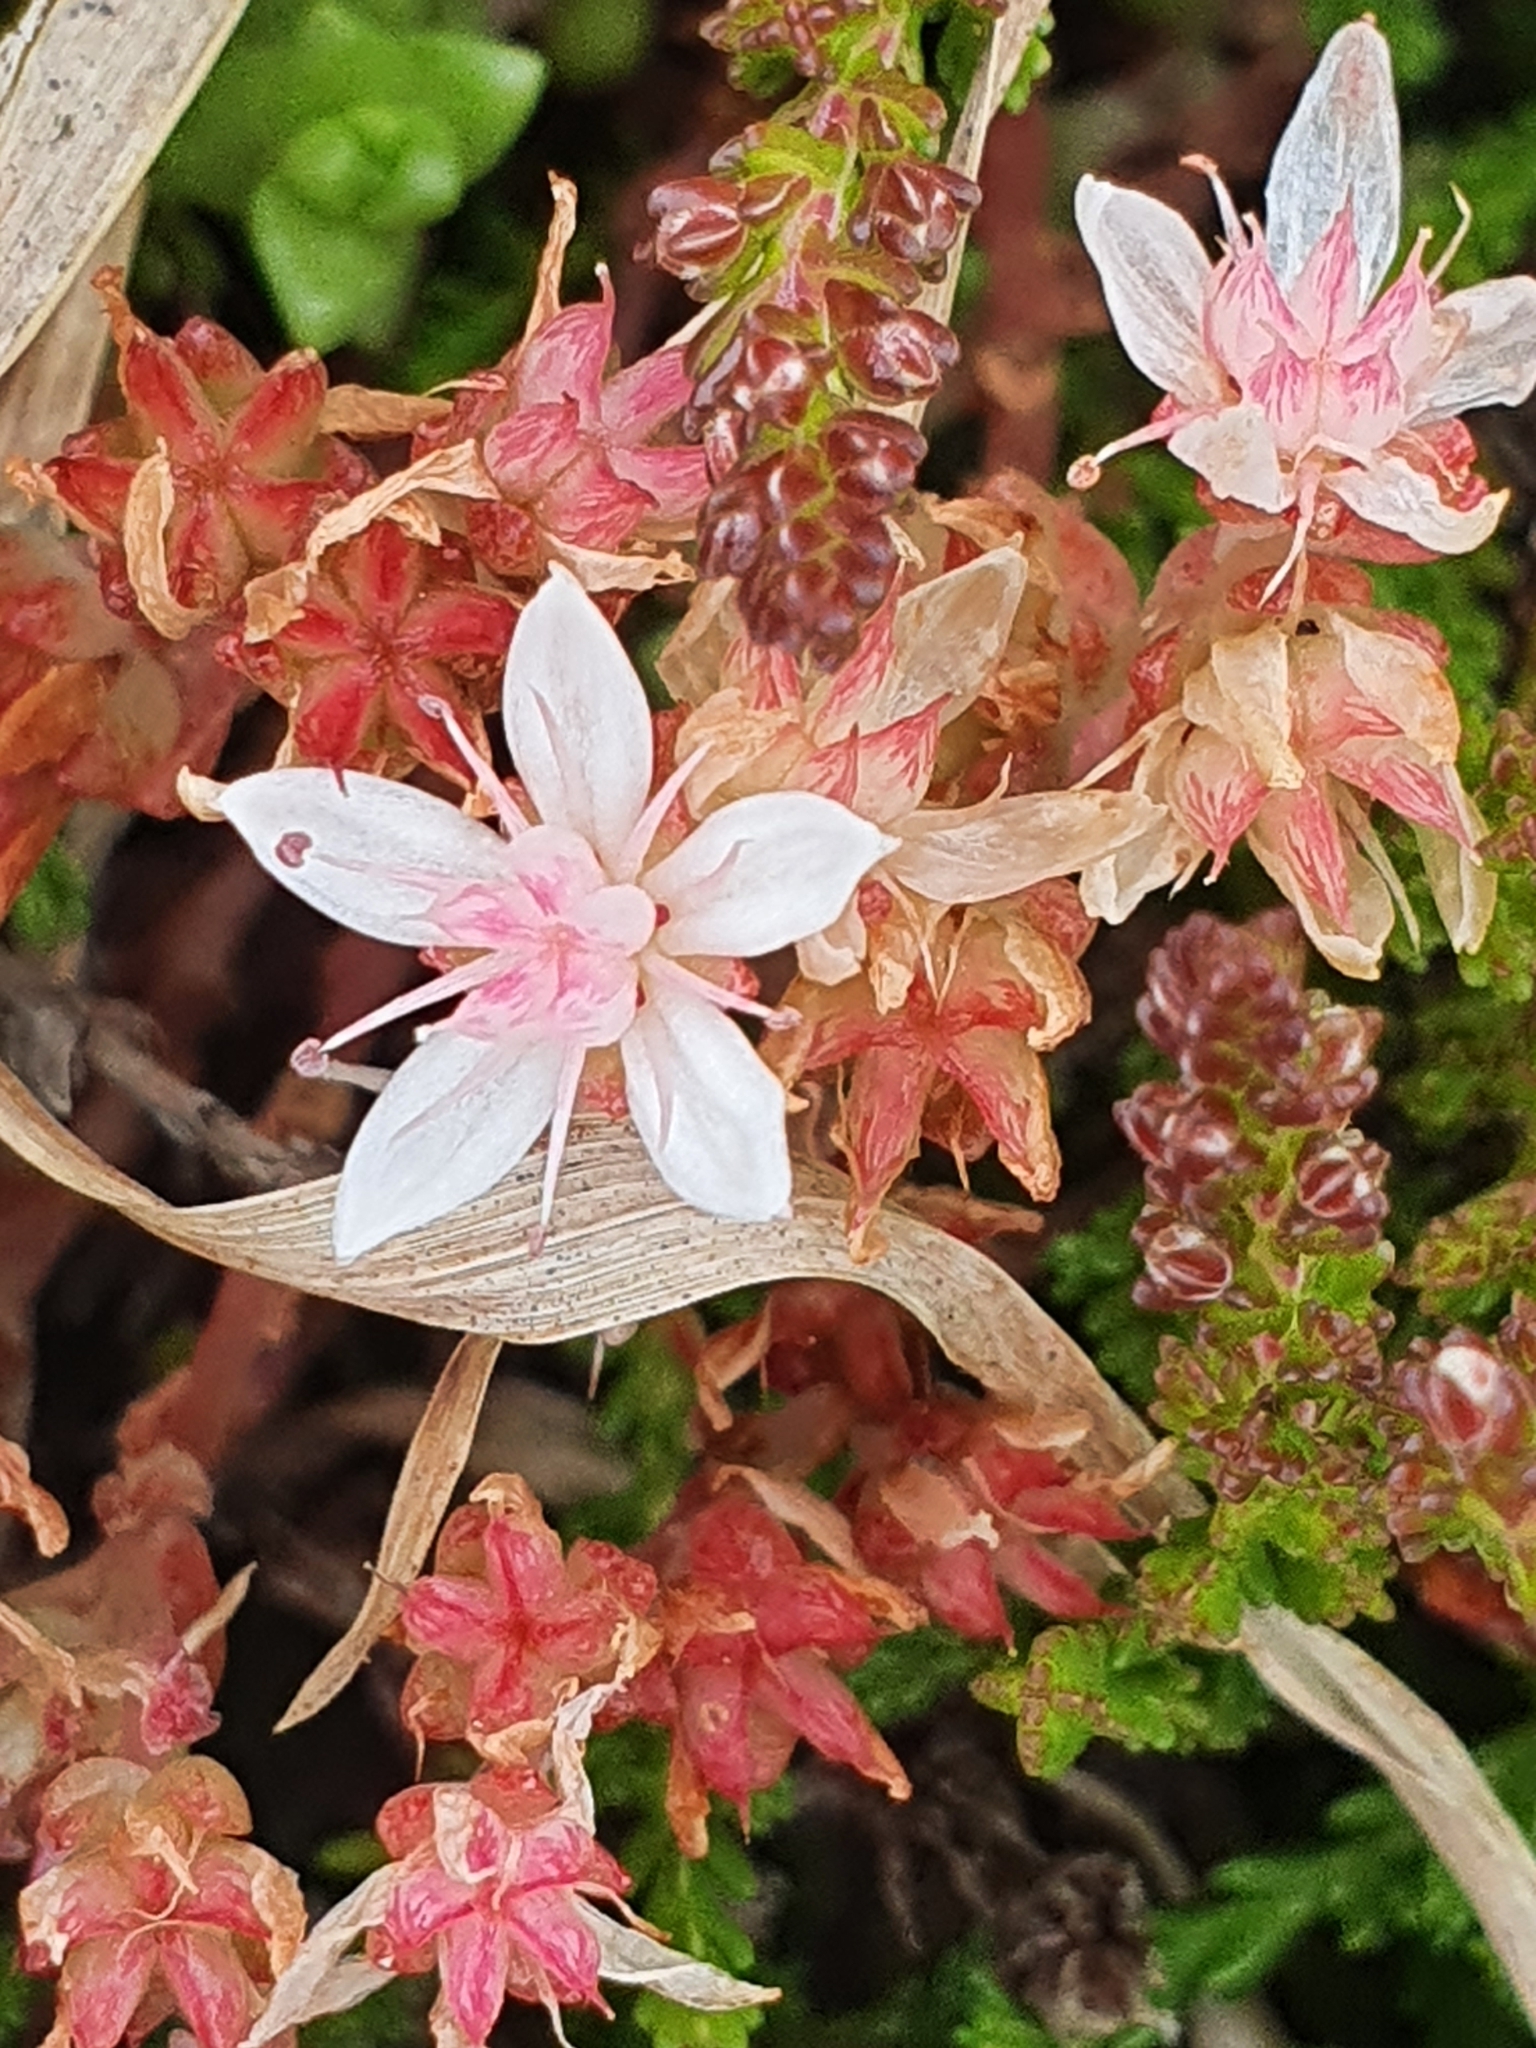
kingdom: Plantae
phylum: Tracheophyta
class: Magnoliopsida
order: Saxifragales
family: Crassulaceae
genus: Sedum
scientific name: Sedum anglicum
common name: English stonecrop
